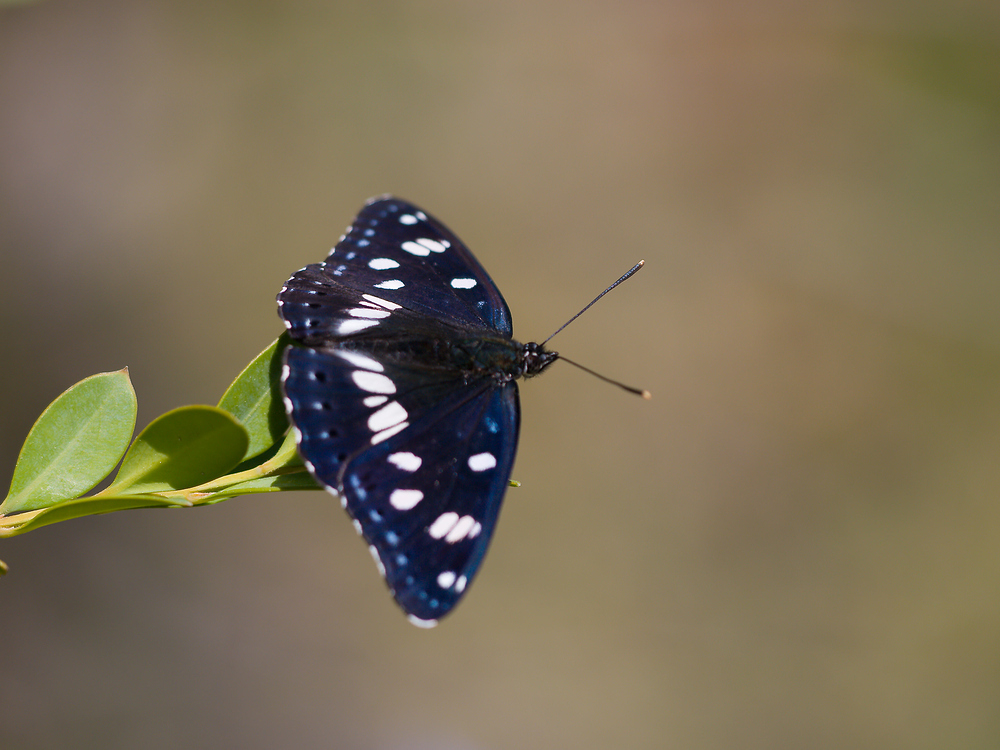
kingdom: Animalia
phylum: Arthropoda
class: Insecta
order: Lepidoptera
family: Nymphalidae
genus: Limenitis
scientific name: Limenitis reducta
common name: Southern white admiral
